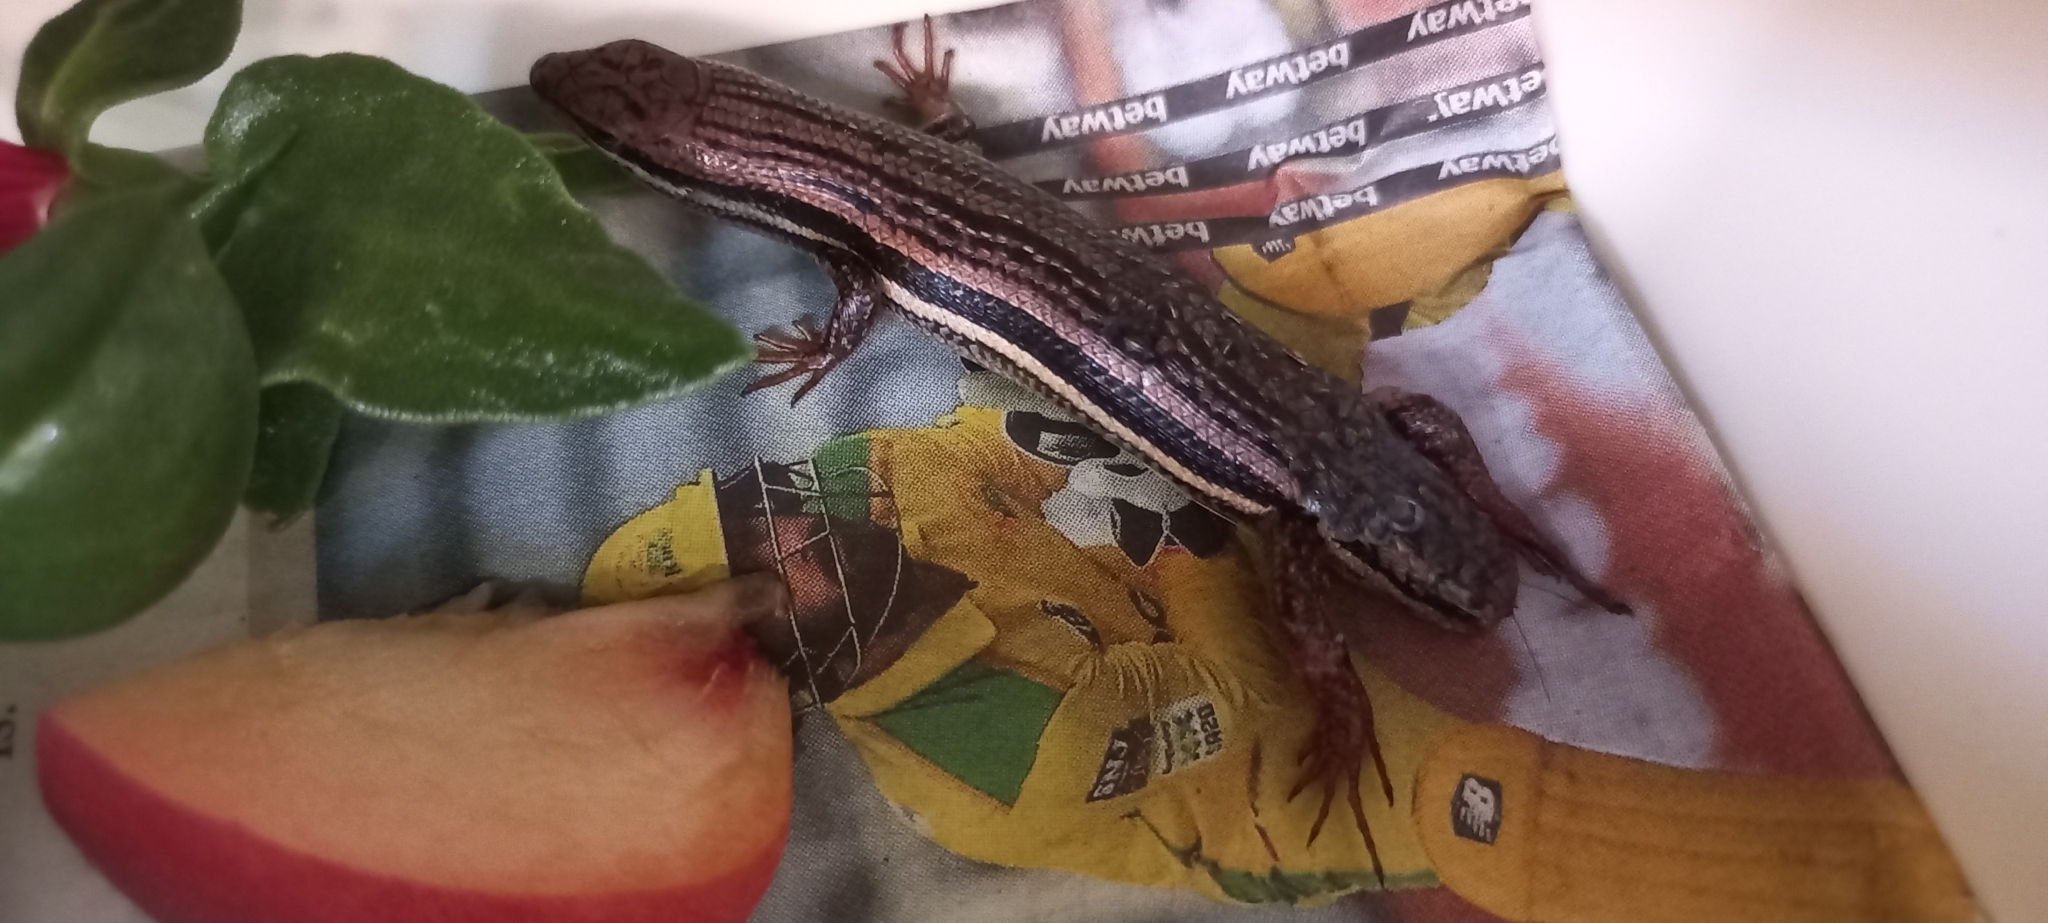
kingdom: Animalia
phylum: Chordata
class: Squamata
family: Scincidae
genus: Trachylepis
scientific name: Trachylepis homalocephala
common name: Red-sided skink
